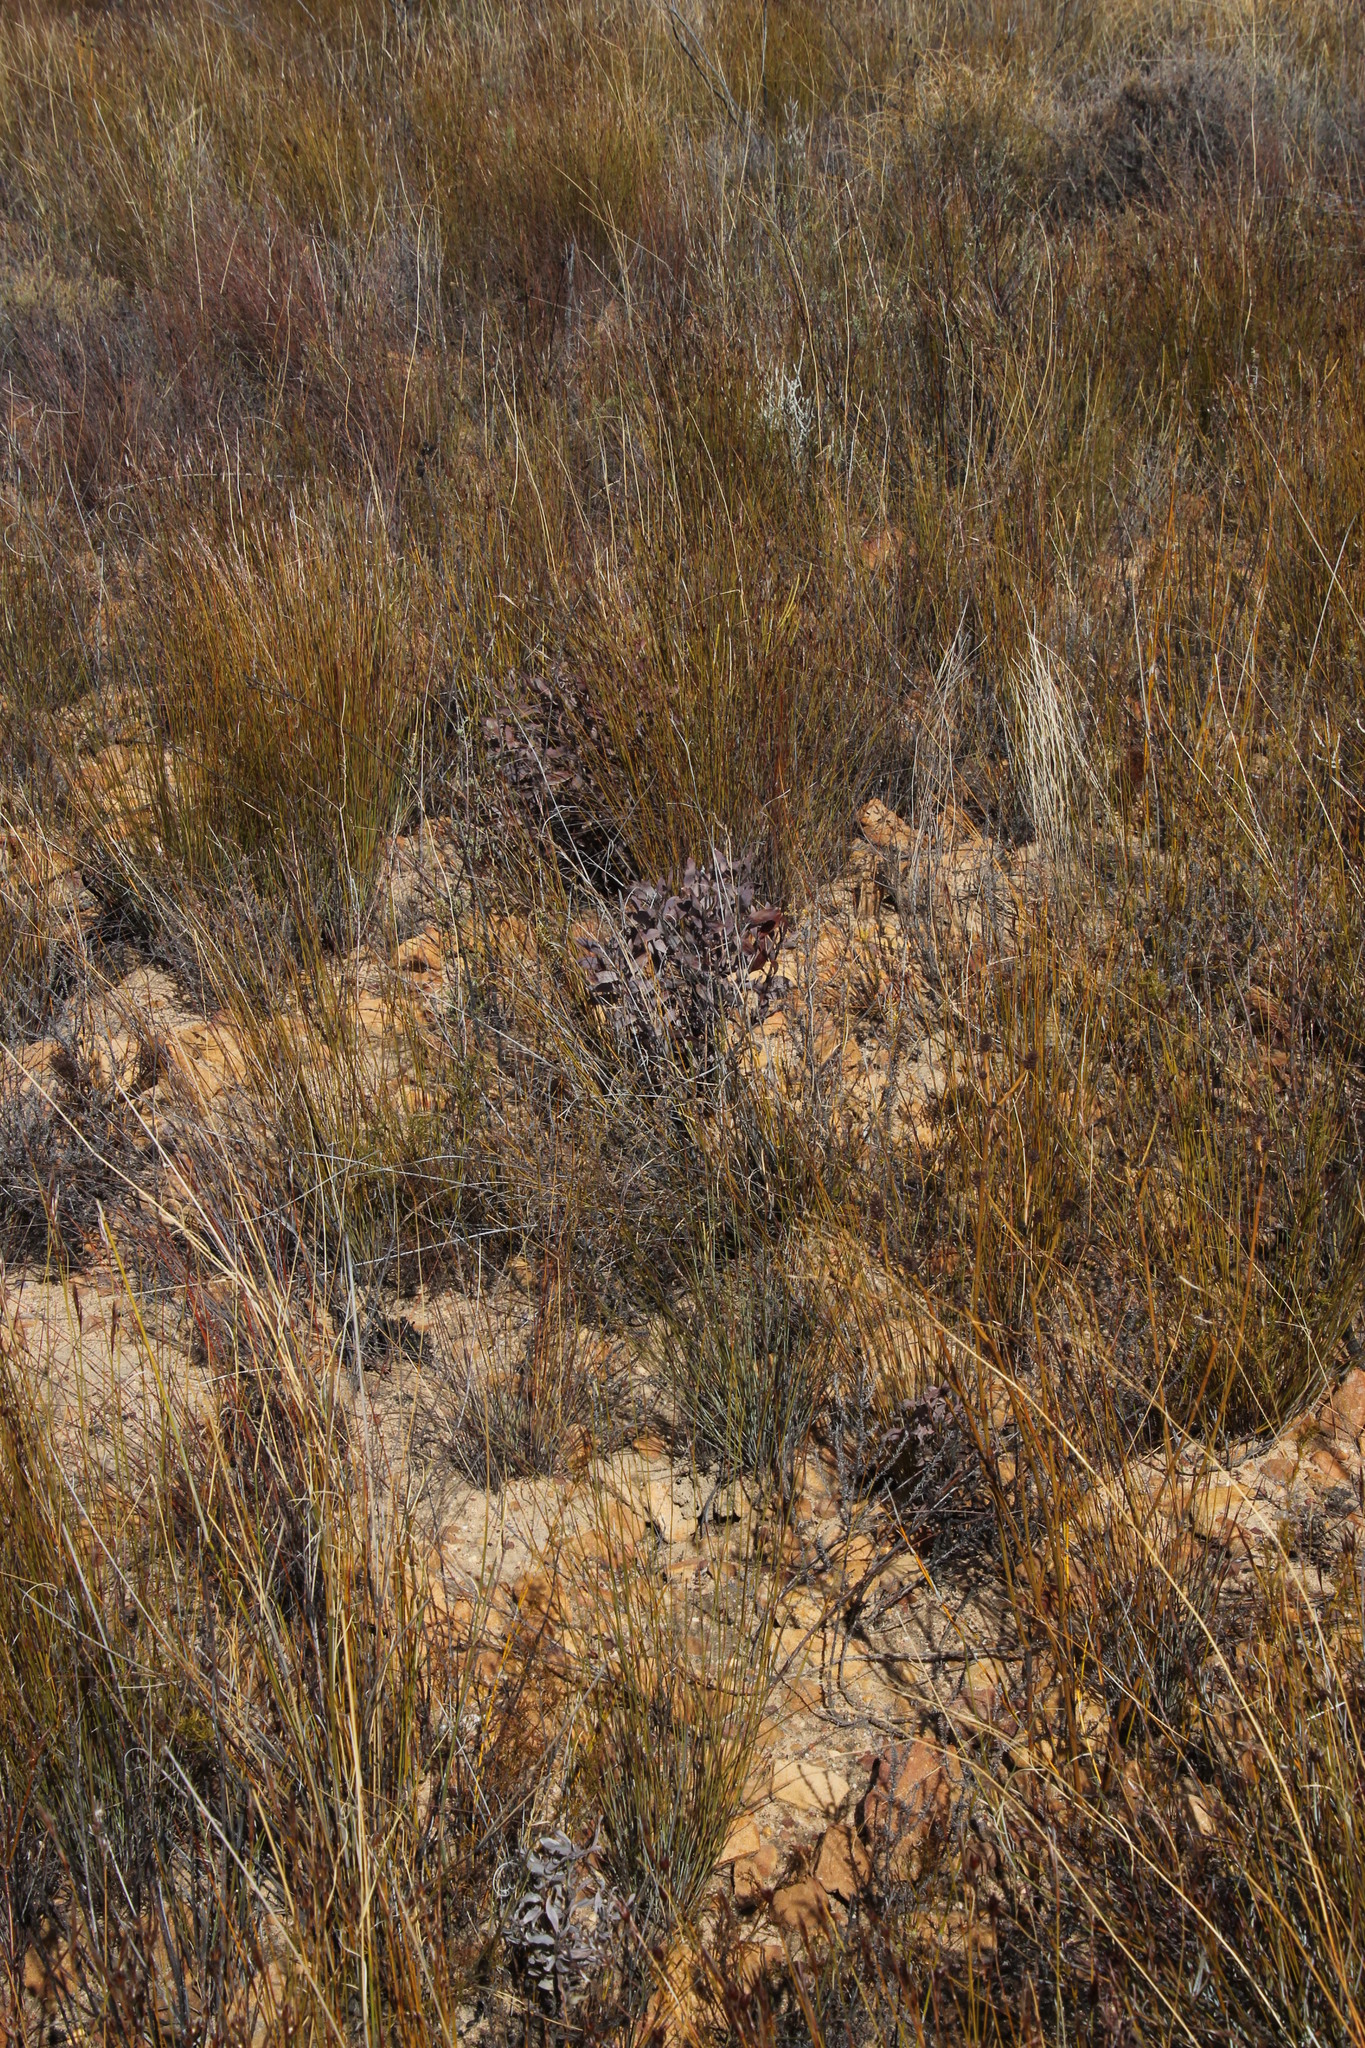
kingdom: Plantae
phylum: Tracheophyta
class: Magnoliopsida
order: Proteales
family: Proteaceae
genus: Protea
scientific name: Protea laurifolia
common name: Grey-leaf sugarbsh
